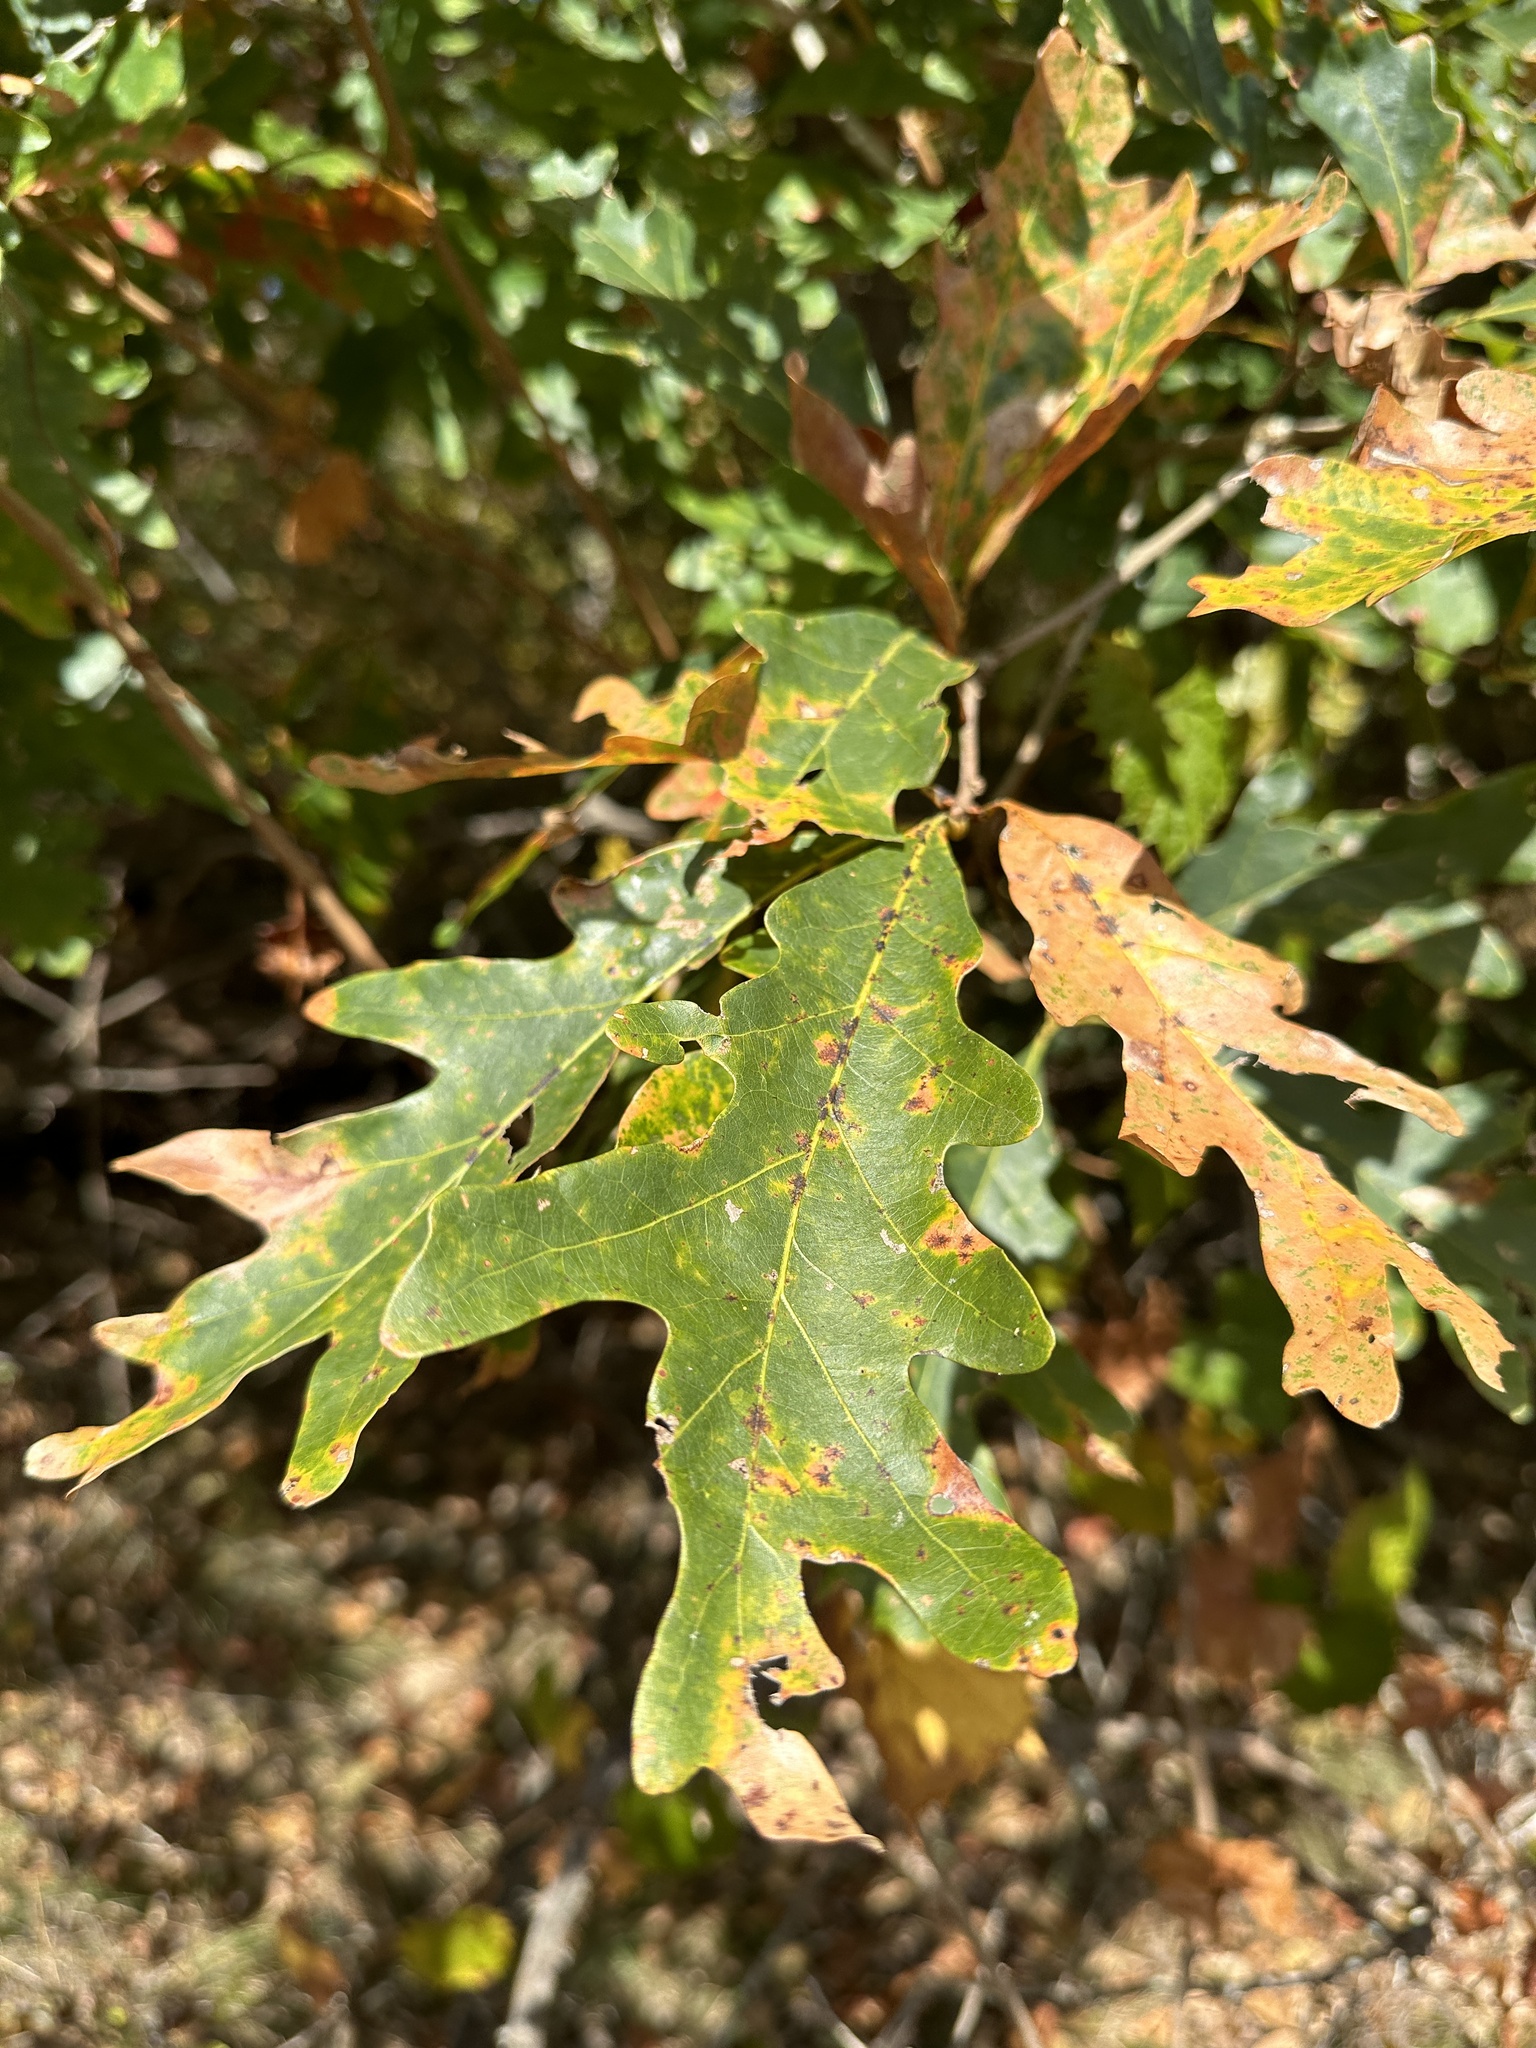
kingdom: Plantae
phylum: Tracheophyta
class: Magnoliopsida
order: Fagales
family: Fagaceae
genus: Quercus
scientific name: Quercus alba
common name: White oak
